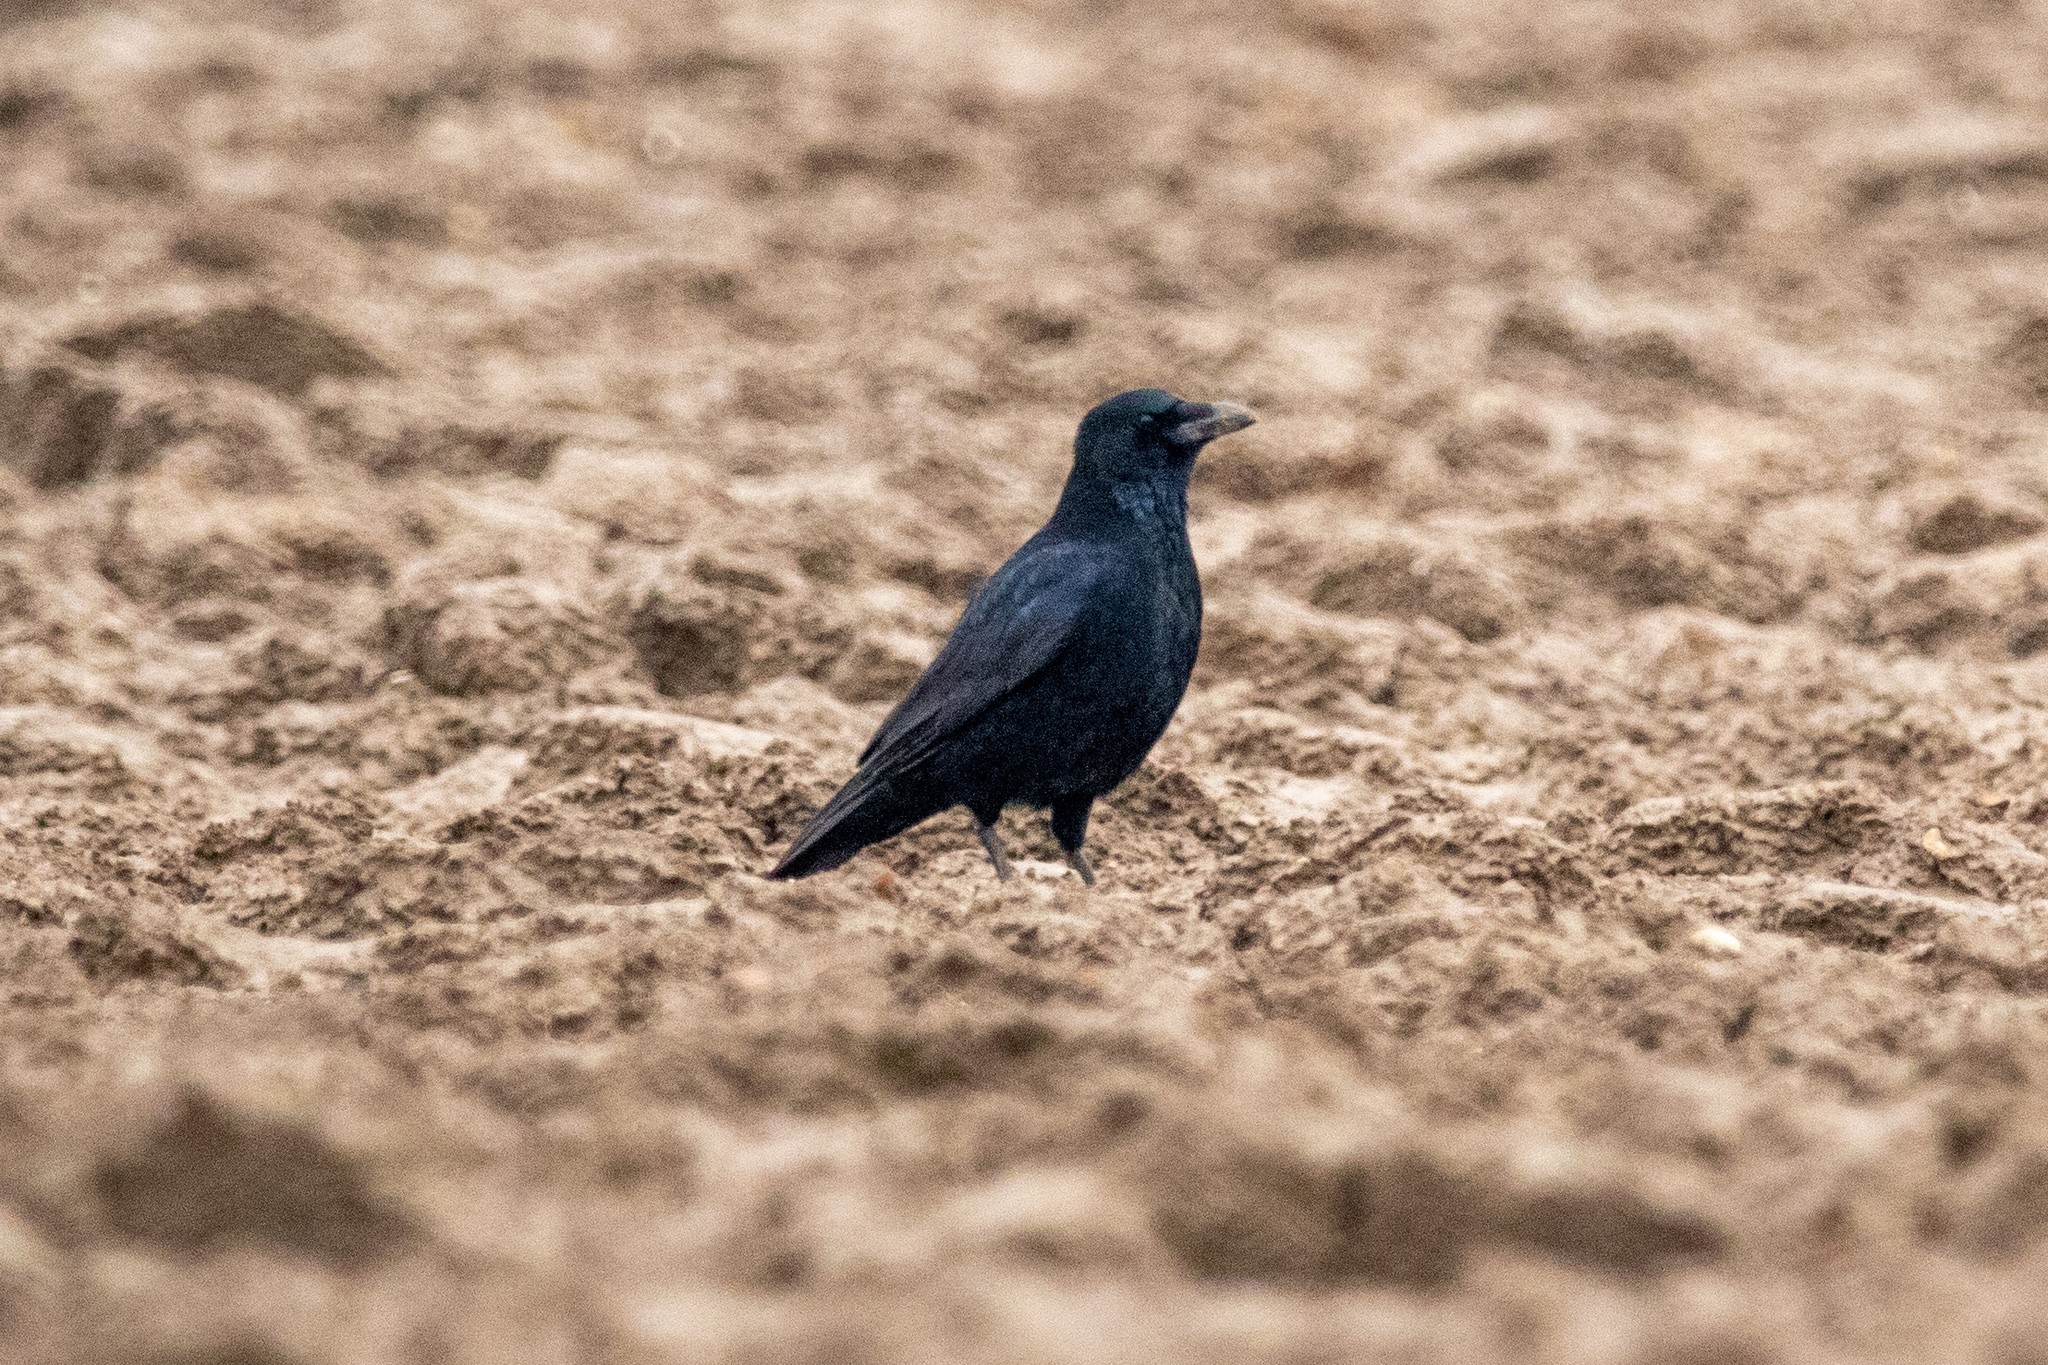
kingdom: Animalia
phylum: Chordata
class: Aves
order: Passeriformes
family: Corvidae
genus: Corvus
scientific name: Corvus corone
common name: Carrion crow
